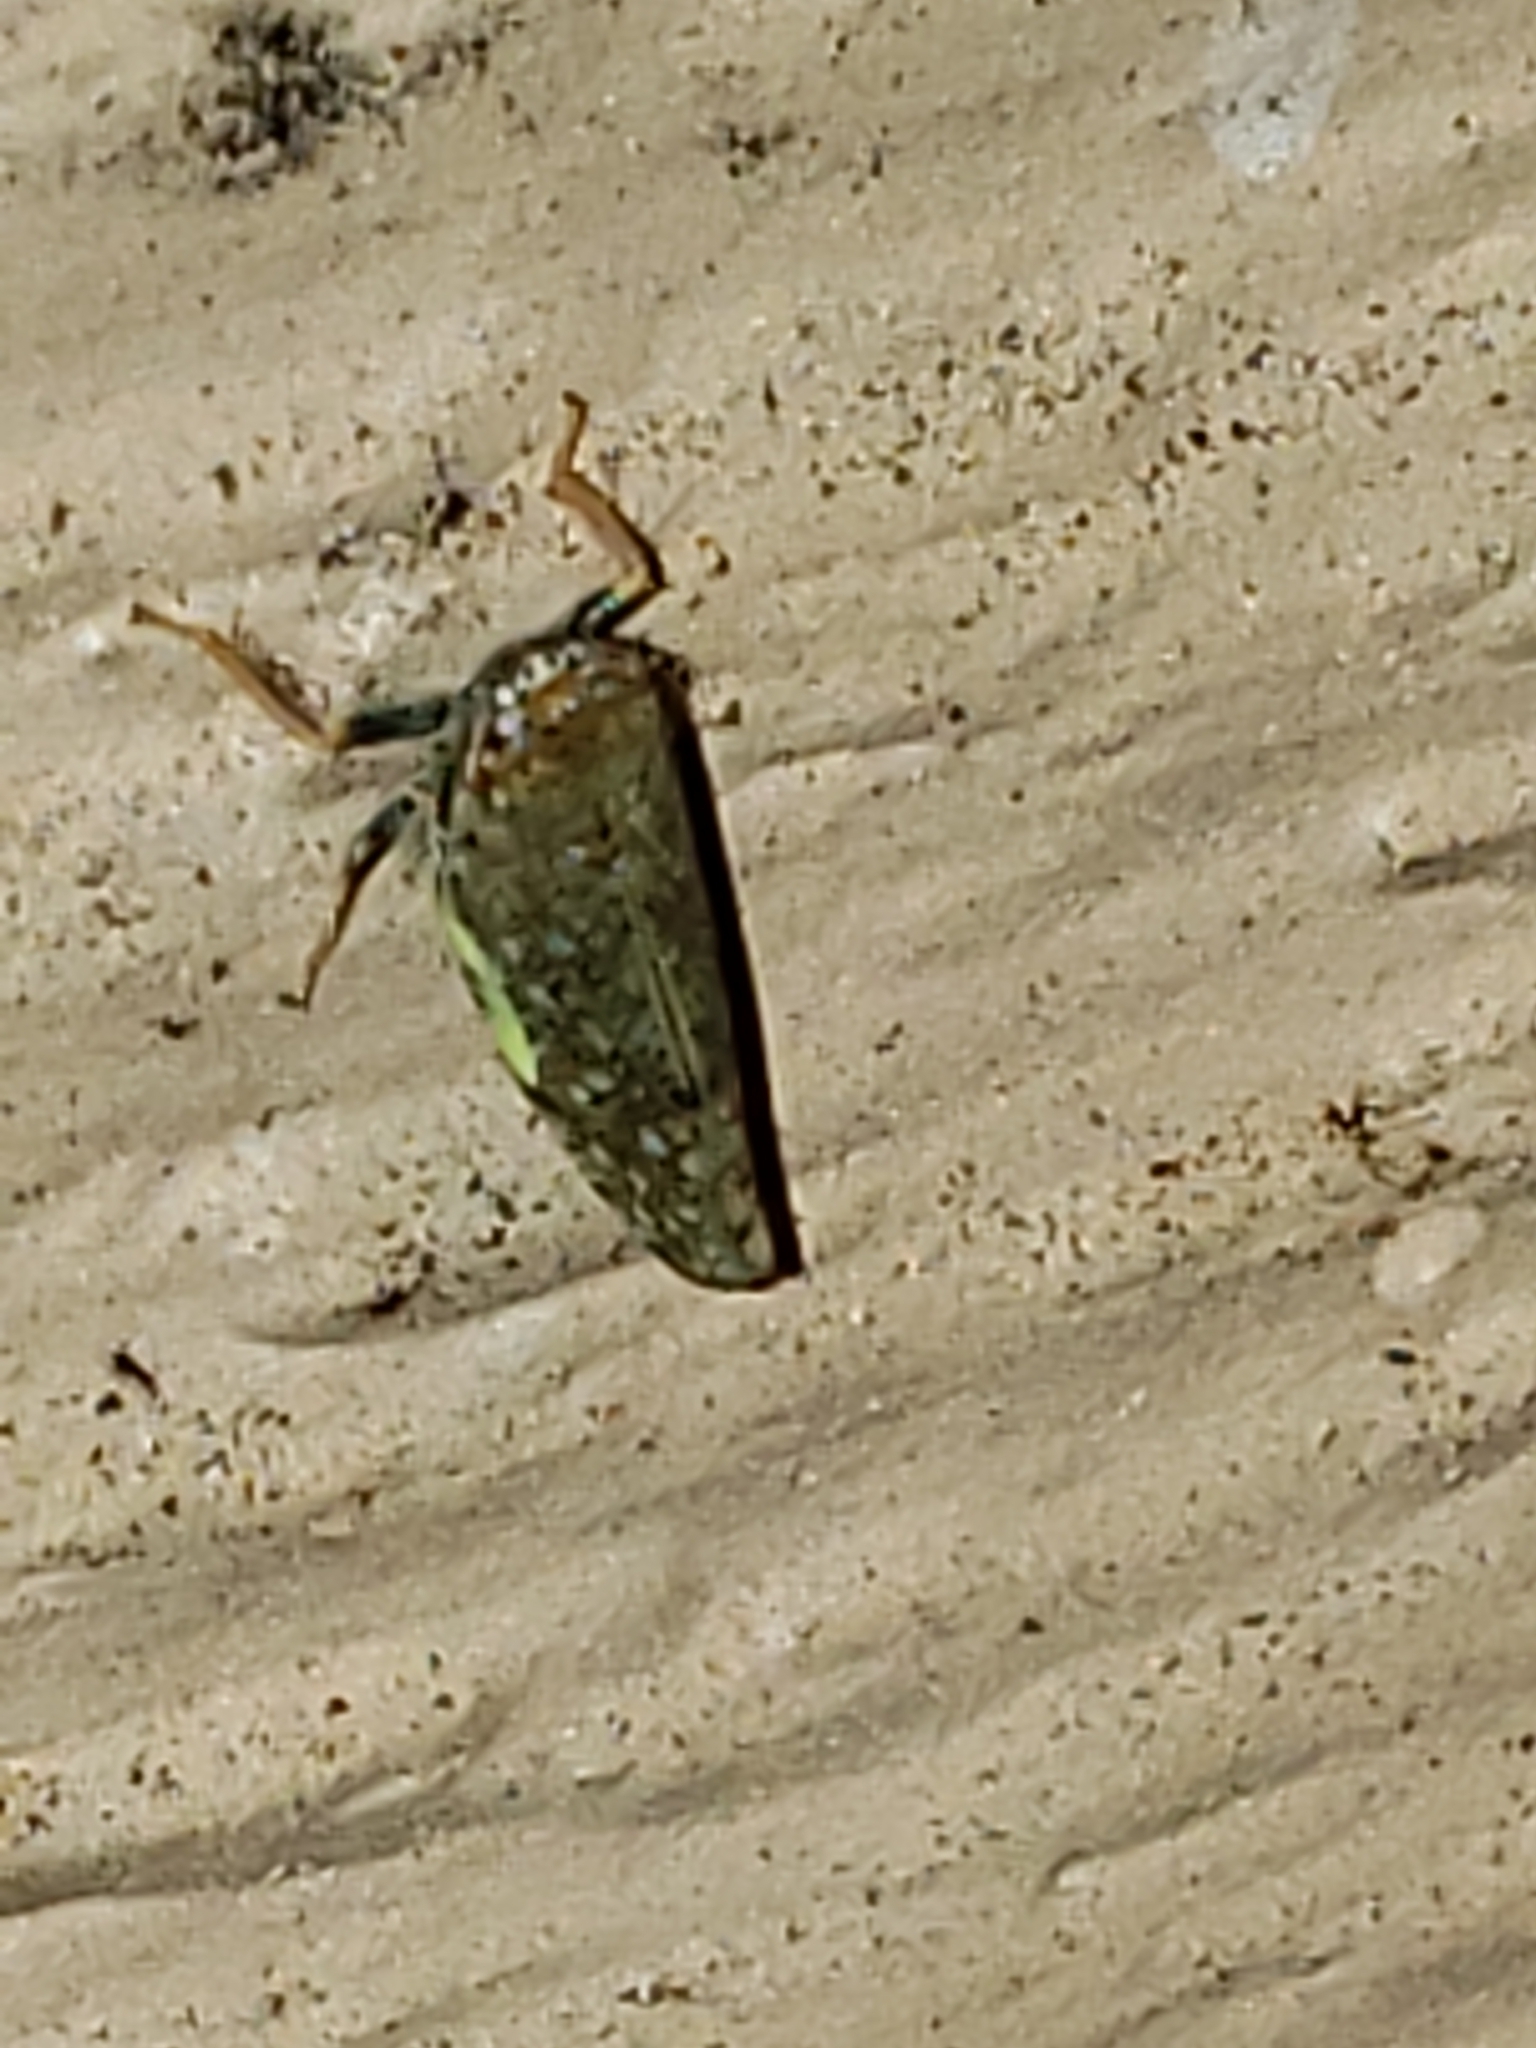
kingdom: Animalia
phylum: Arthropoda
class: Insecta
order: Hemiptera
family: Cicadellidae
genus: Orientus
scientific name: Orientus ishidae
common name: Japanese leafhopper
